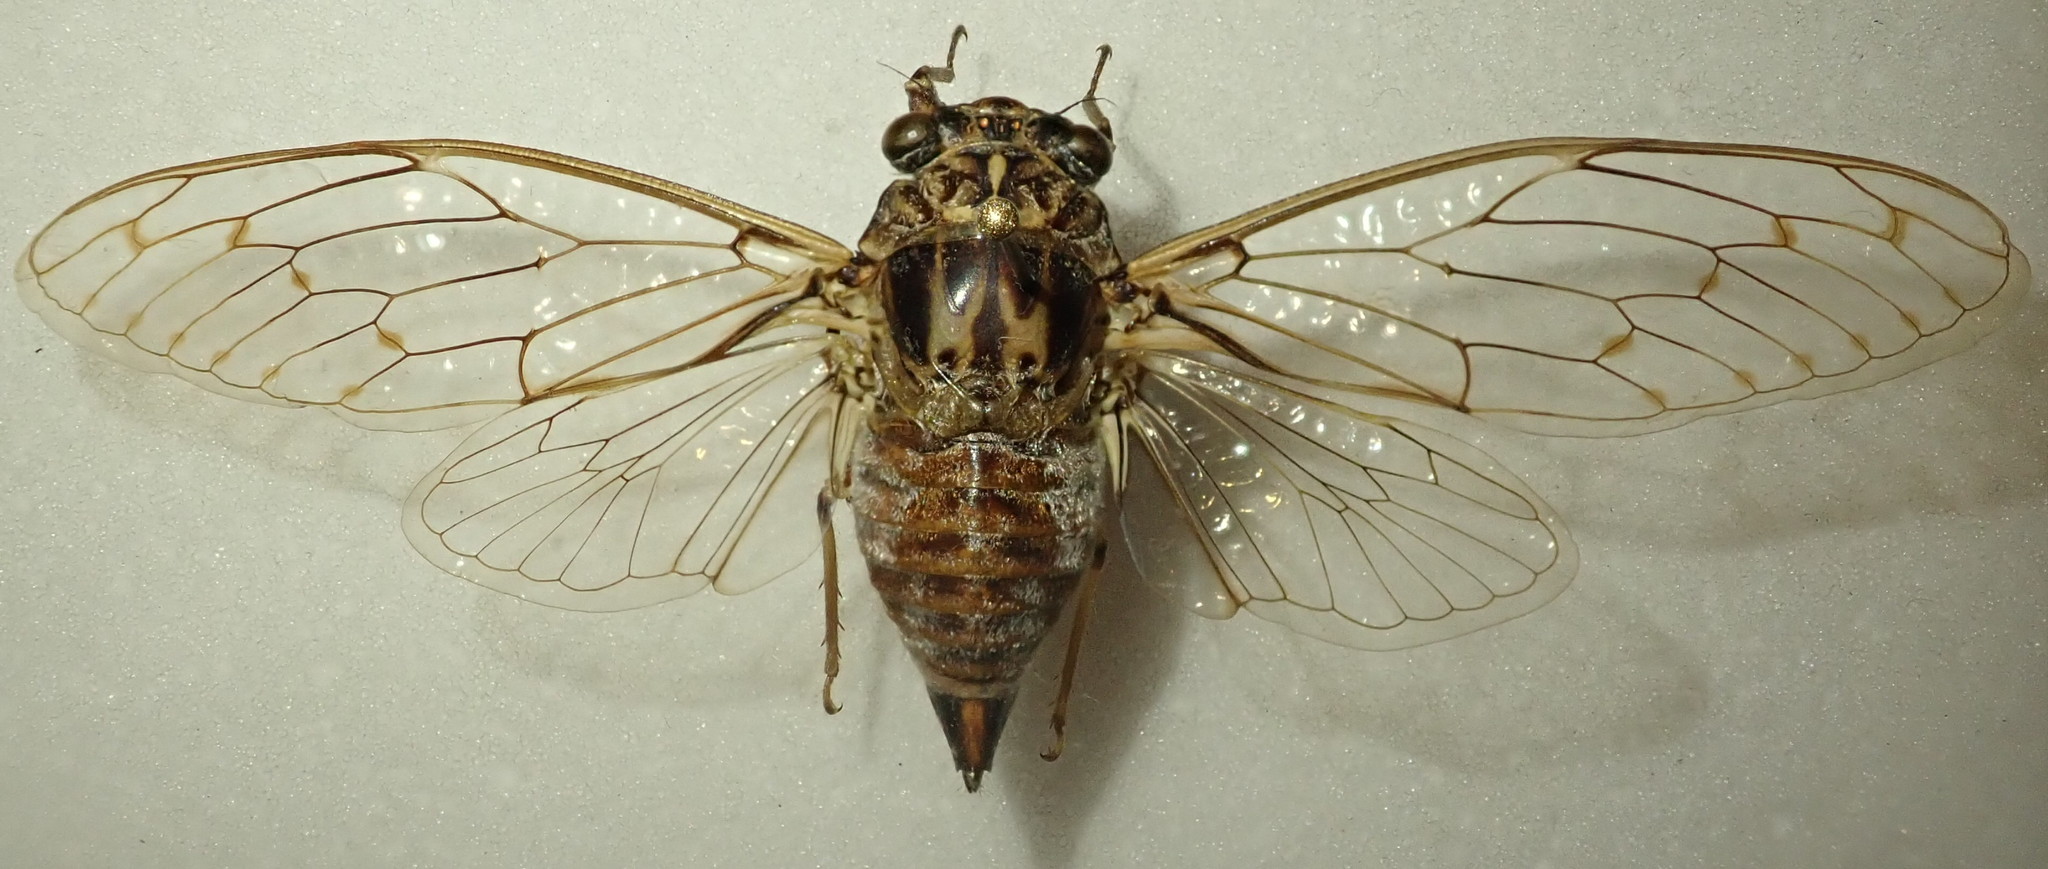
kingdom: Animalia
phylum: Arthropoda
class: Insecta
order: Hemiptera
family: Cicadidae
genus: Cicada
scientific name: Cicada orni
